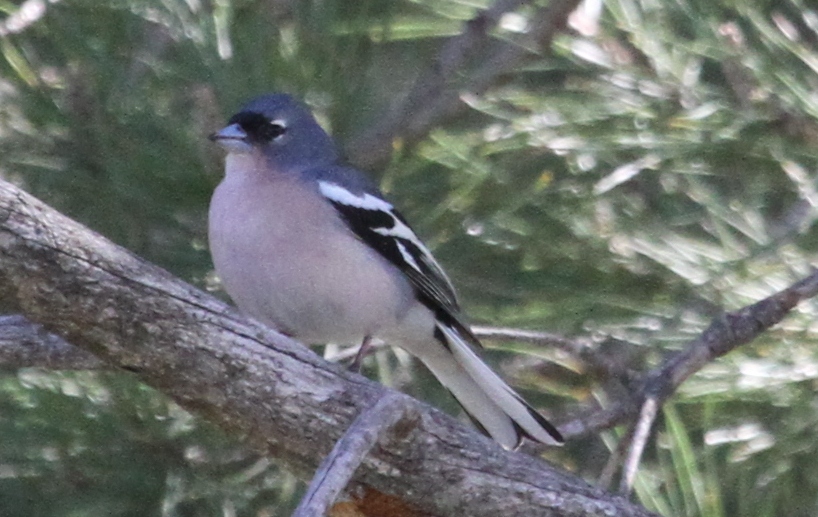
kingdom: Animalia
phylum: Chordata
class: Aves
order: Passeriformes
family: Fringillidae
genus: Fringilla
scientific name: Fringilla spodiogenys
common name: African chaffinch
